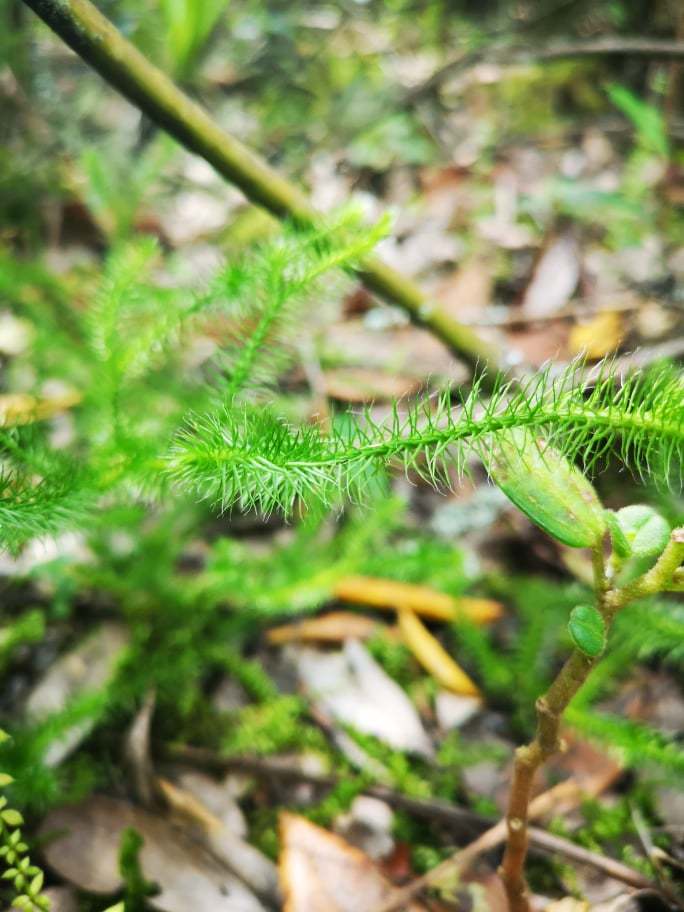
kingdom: Plantae
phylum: Tracheophyta
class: Lycopodiopsida
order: Lycopodiales
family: Lycopodiaceae
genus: Lycopodium
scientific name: Lycopodium clavatum
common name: Stag's-horn clubmoss
